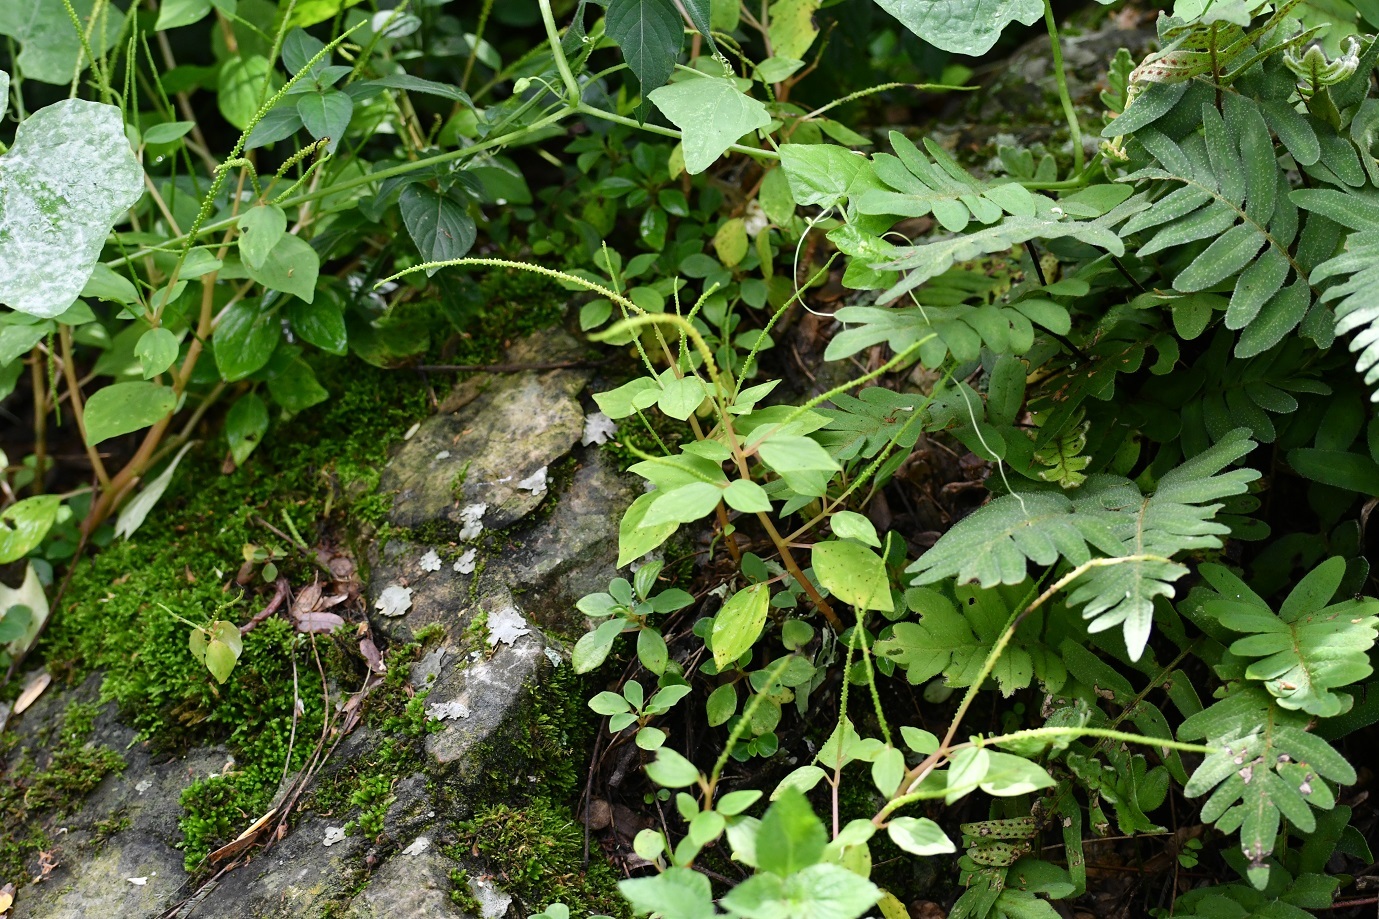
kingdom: Plantae
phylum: Tracheophyta
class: Magnoliopsida
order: Piperales
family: Piperaceae
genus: Peperomia
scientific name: Peperomia pereskiifolia
